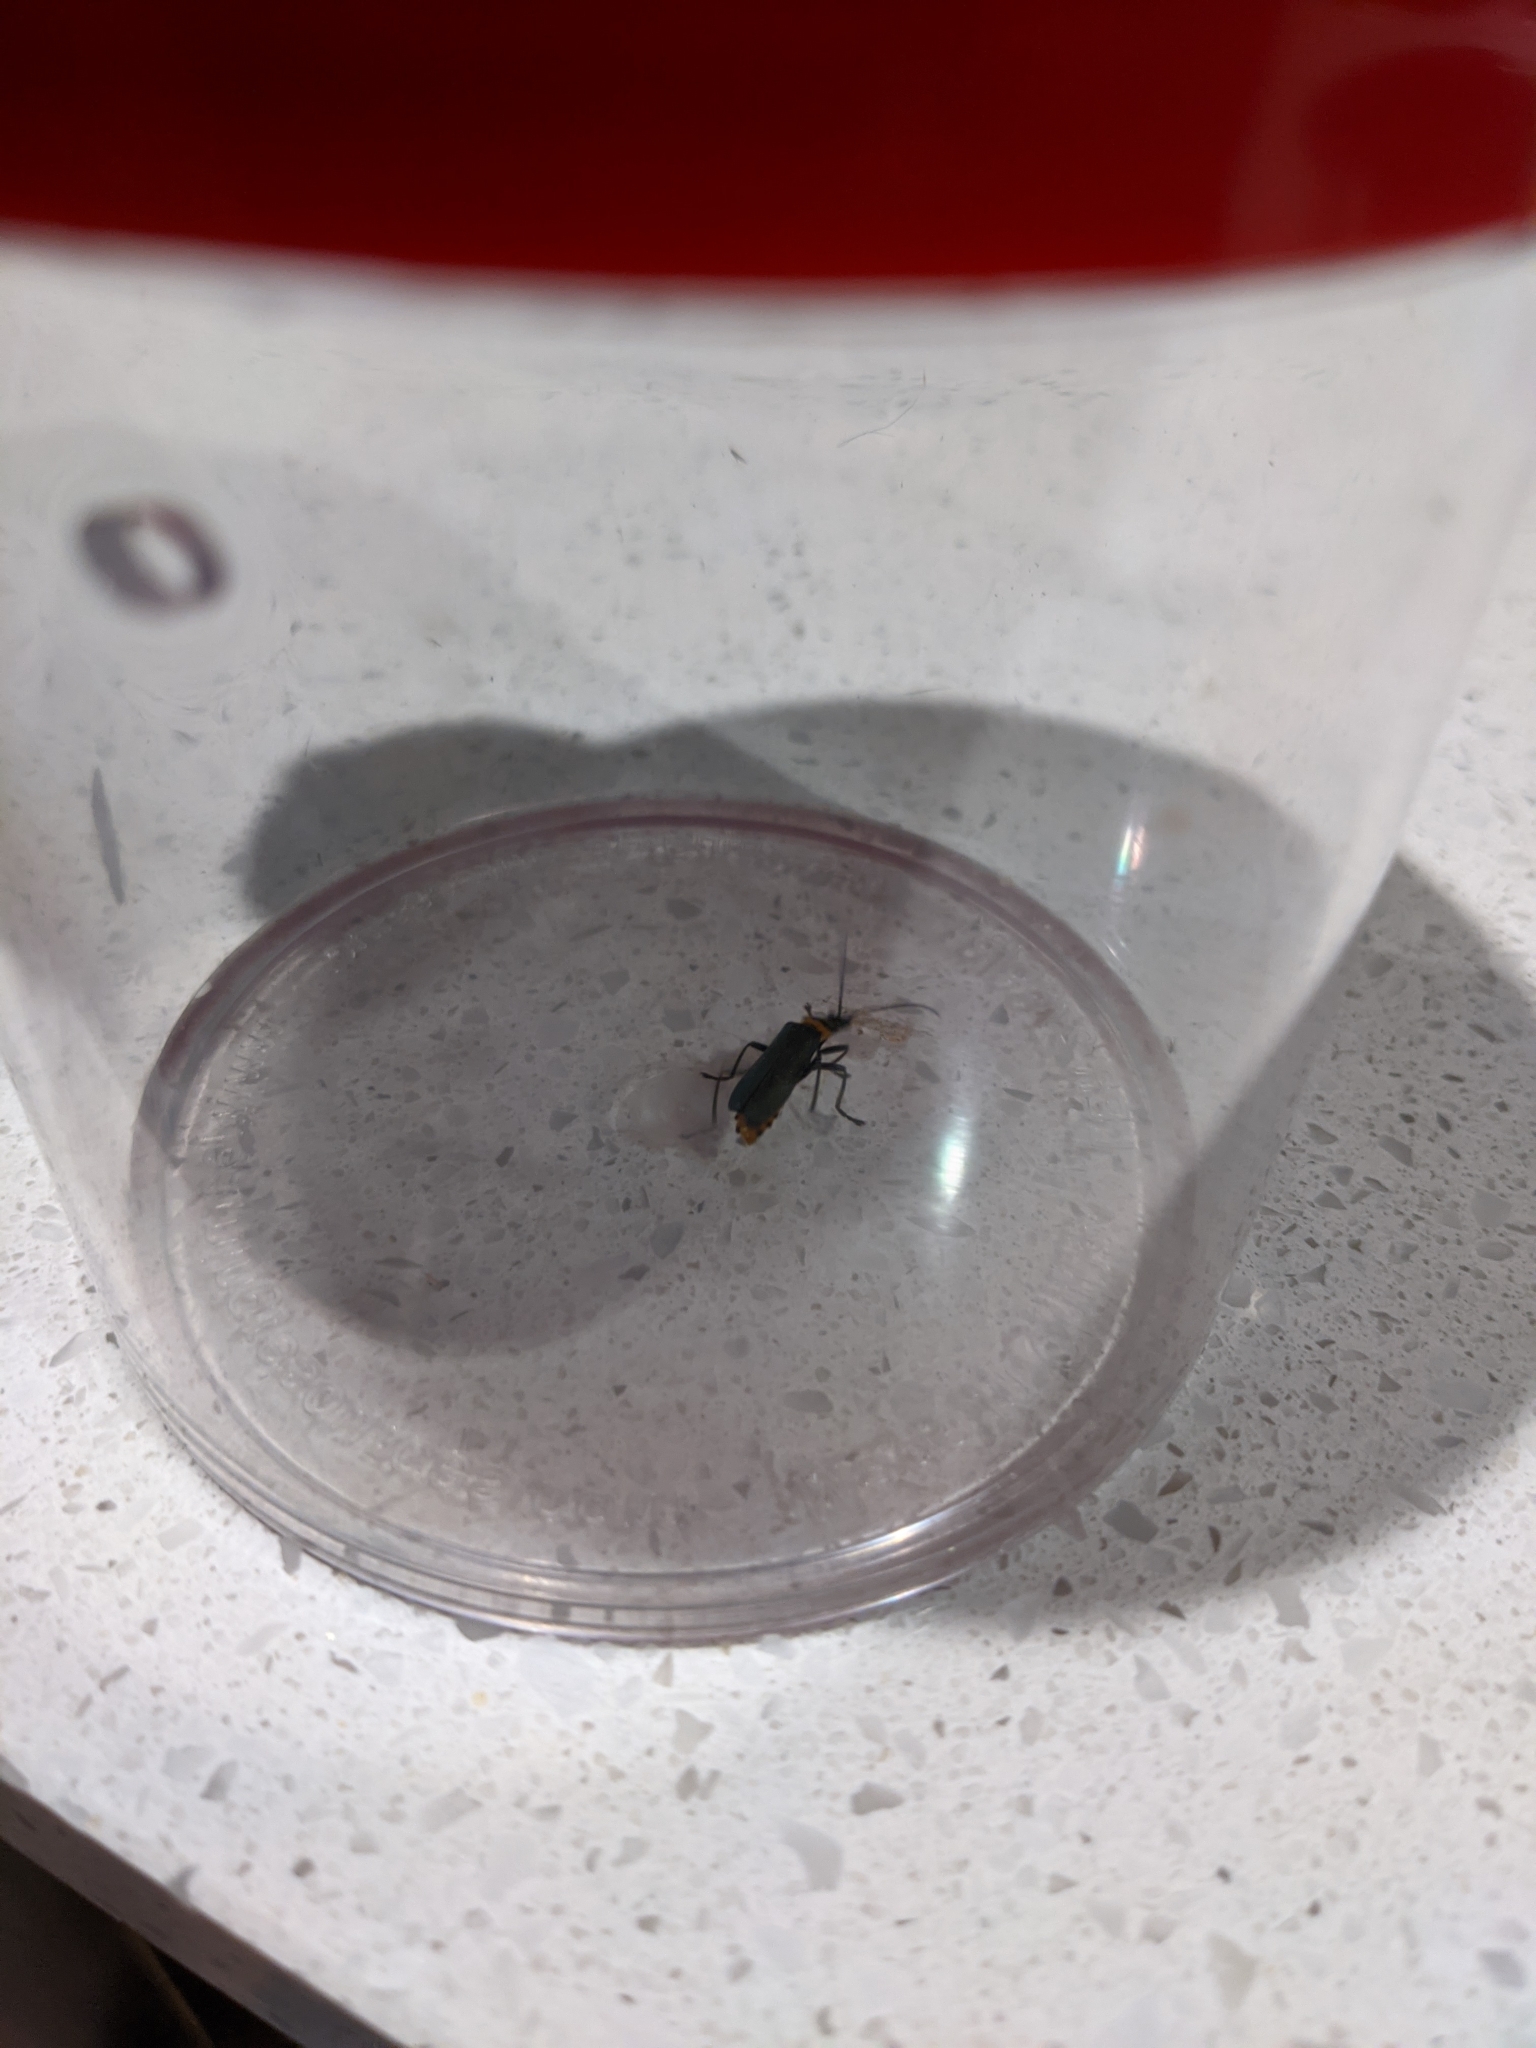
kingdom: Animalia
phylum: Arthropoda
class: Insecta
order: Coleoptera
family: Cantharidae
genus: Chauliognathus
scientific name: Chauliognathus
